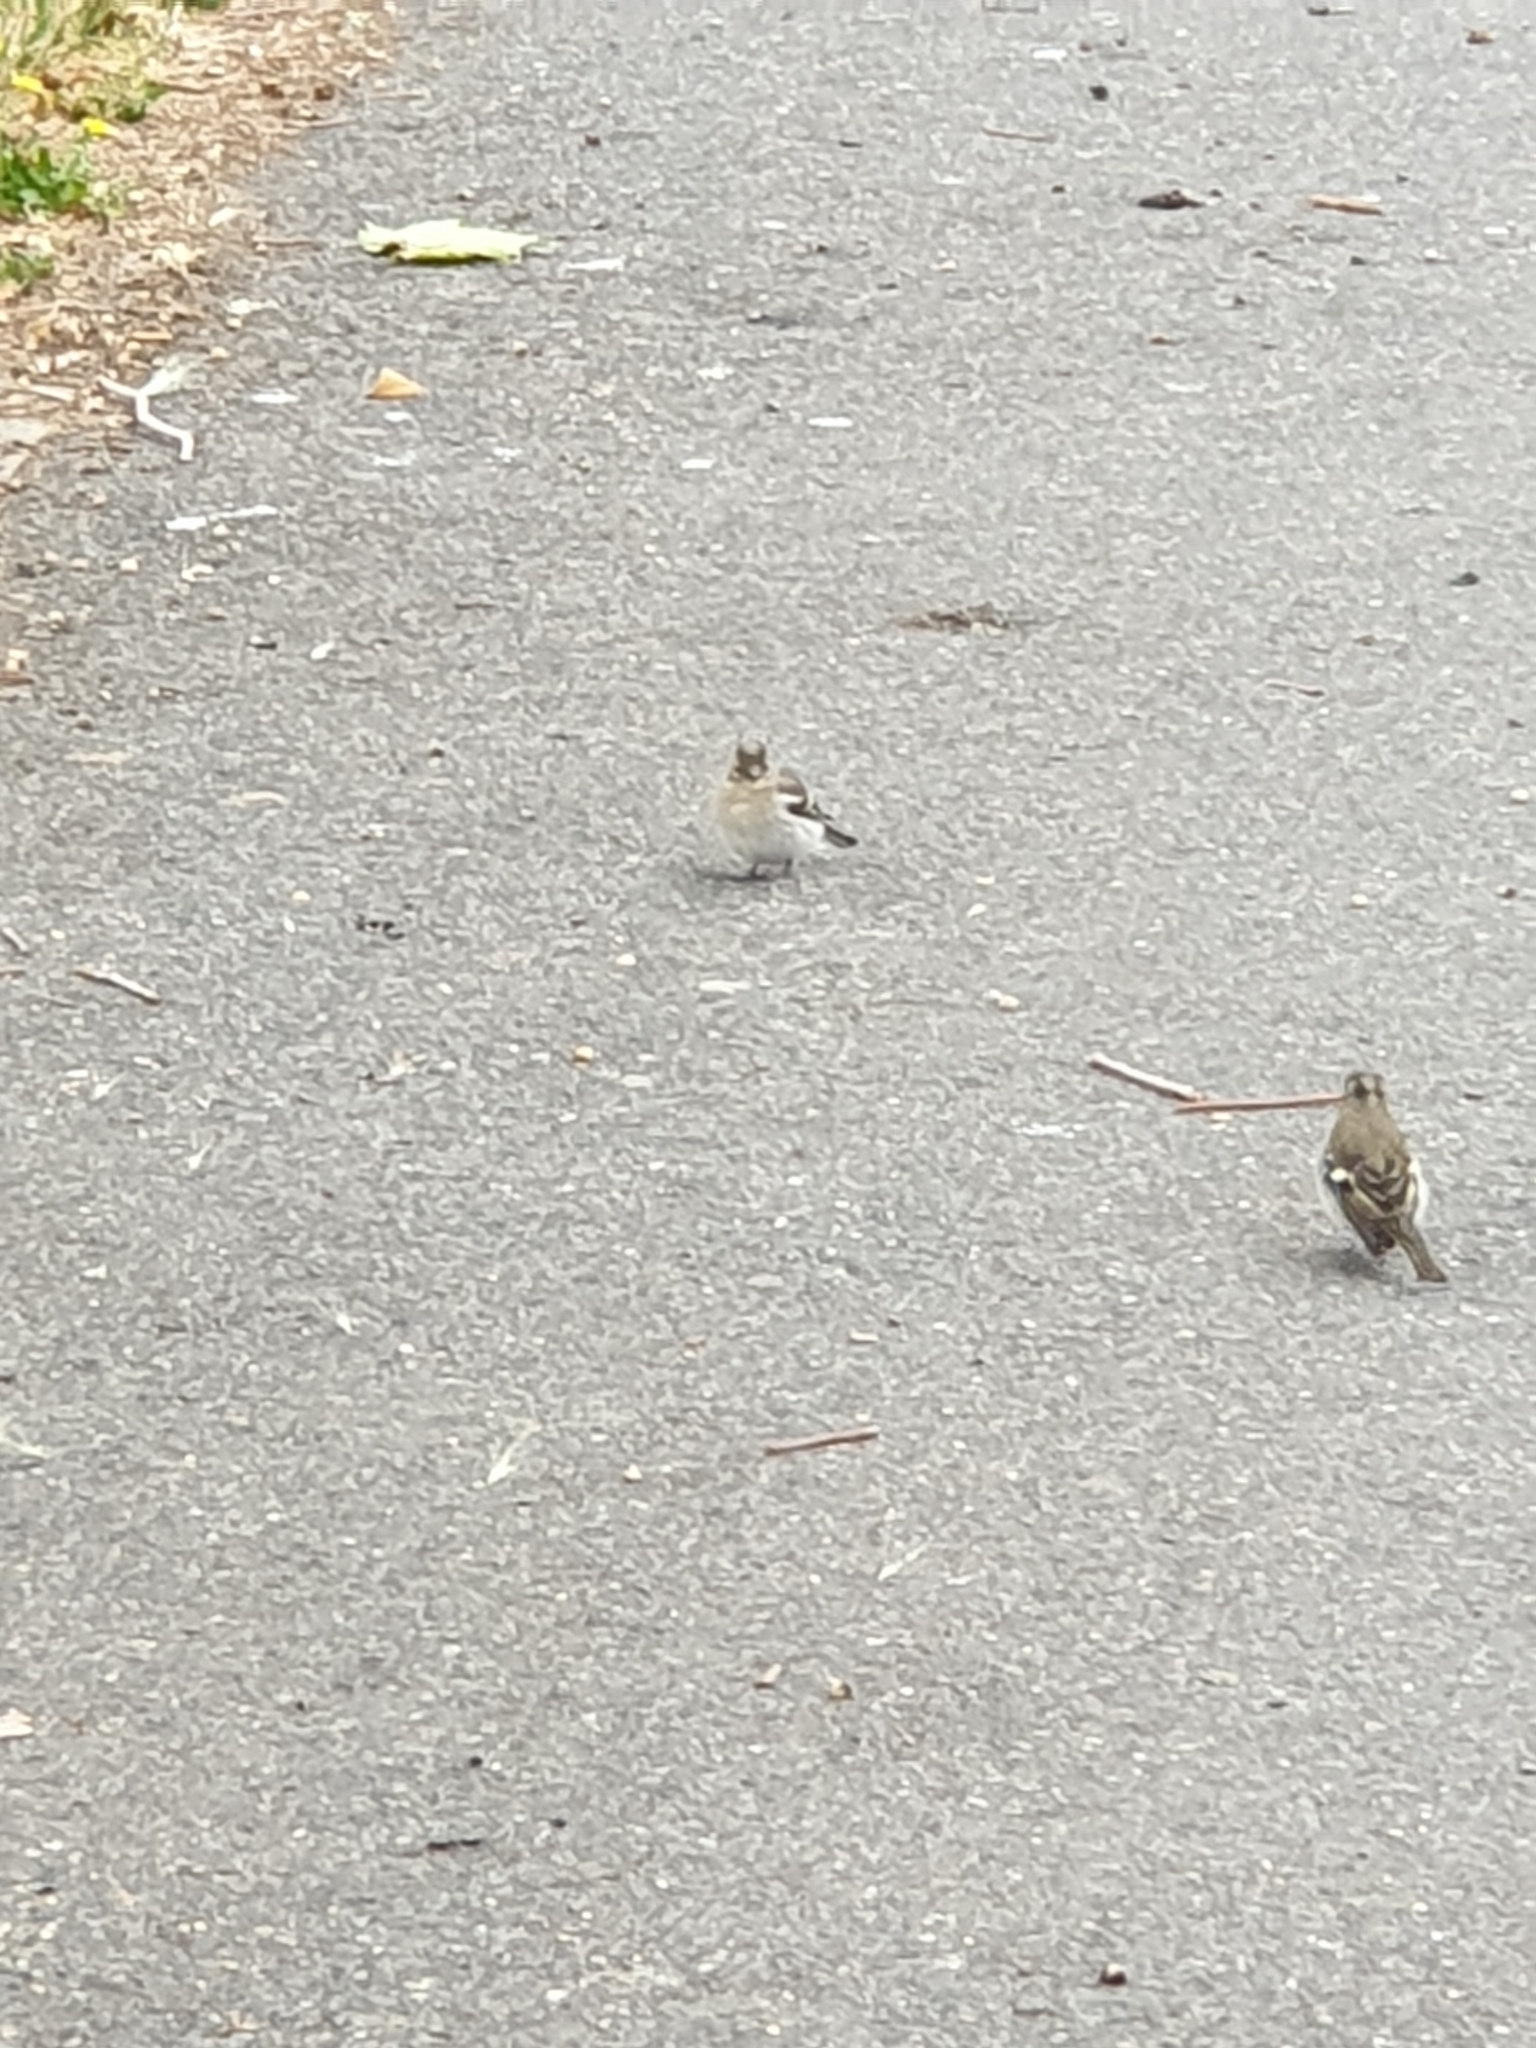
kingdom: Animalia
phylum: Chordata
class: Aves
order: Passeriformes
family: Fringillidae
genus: Fringilla
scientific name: Fringilla coelebs
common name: Common chaffinch
